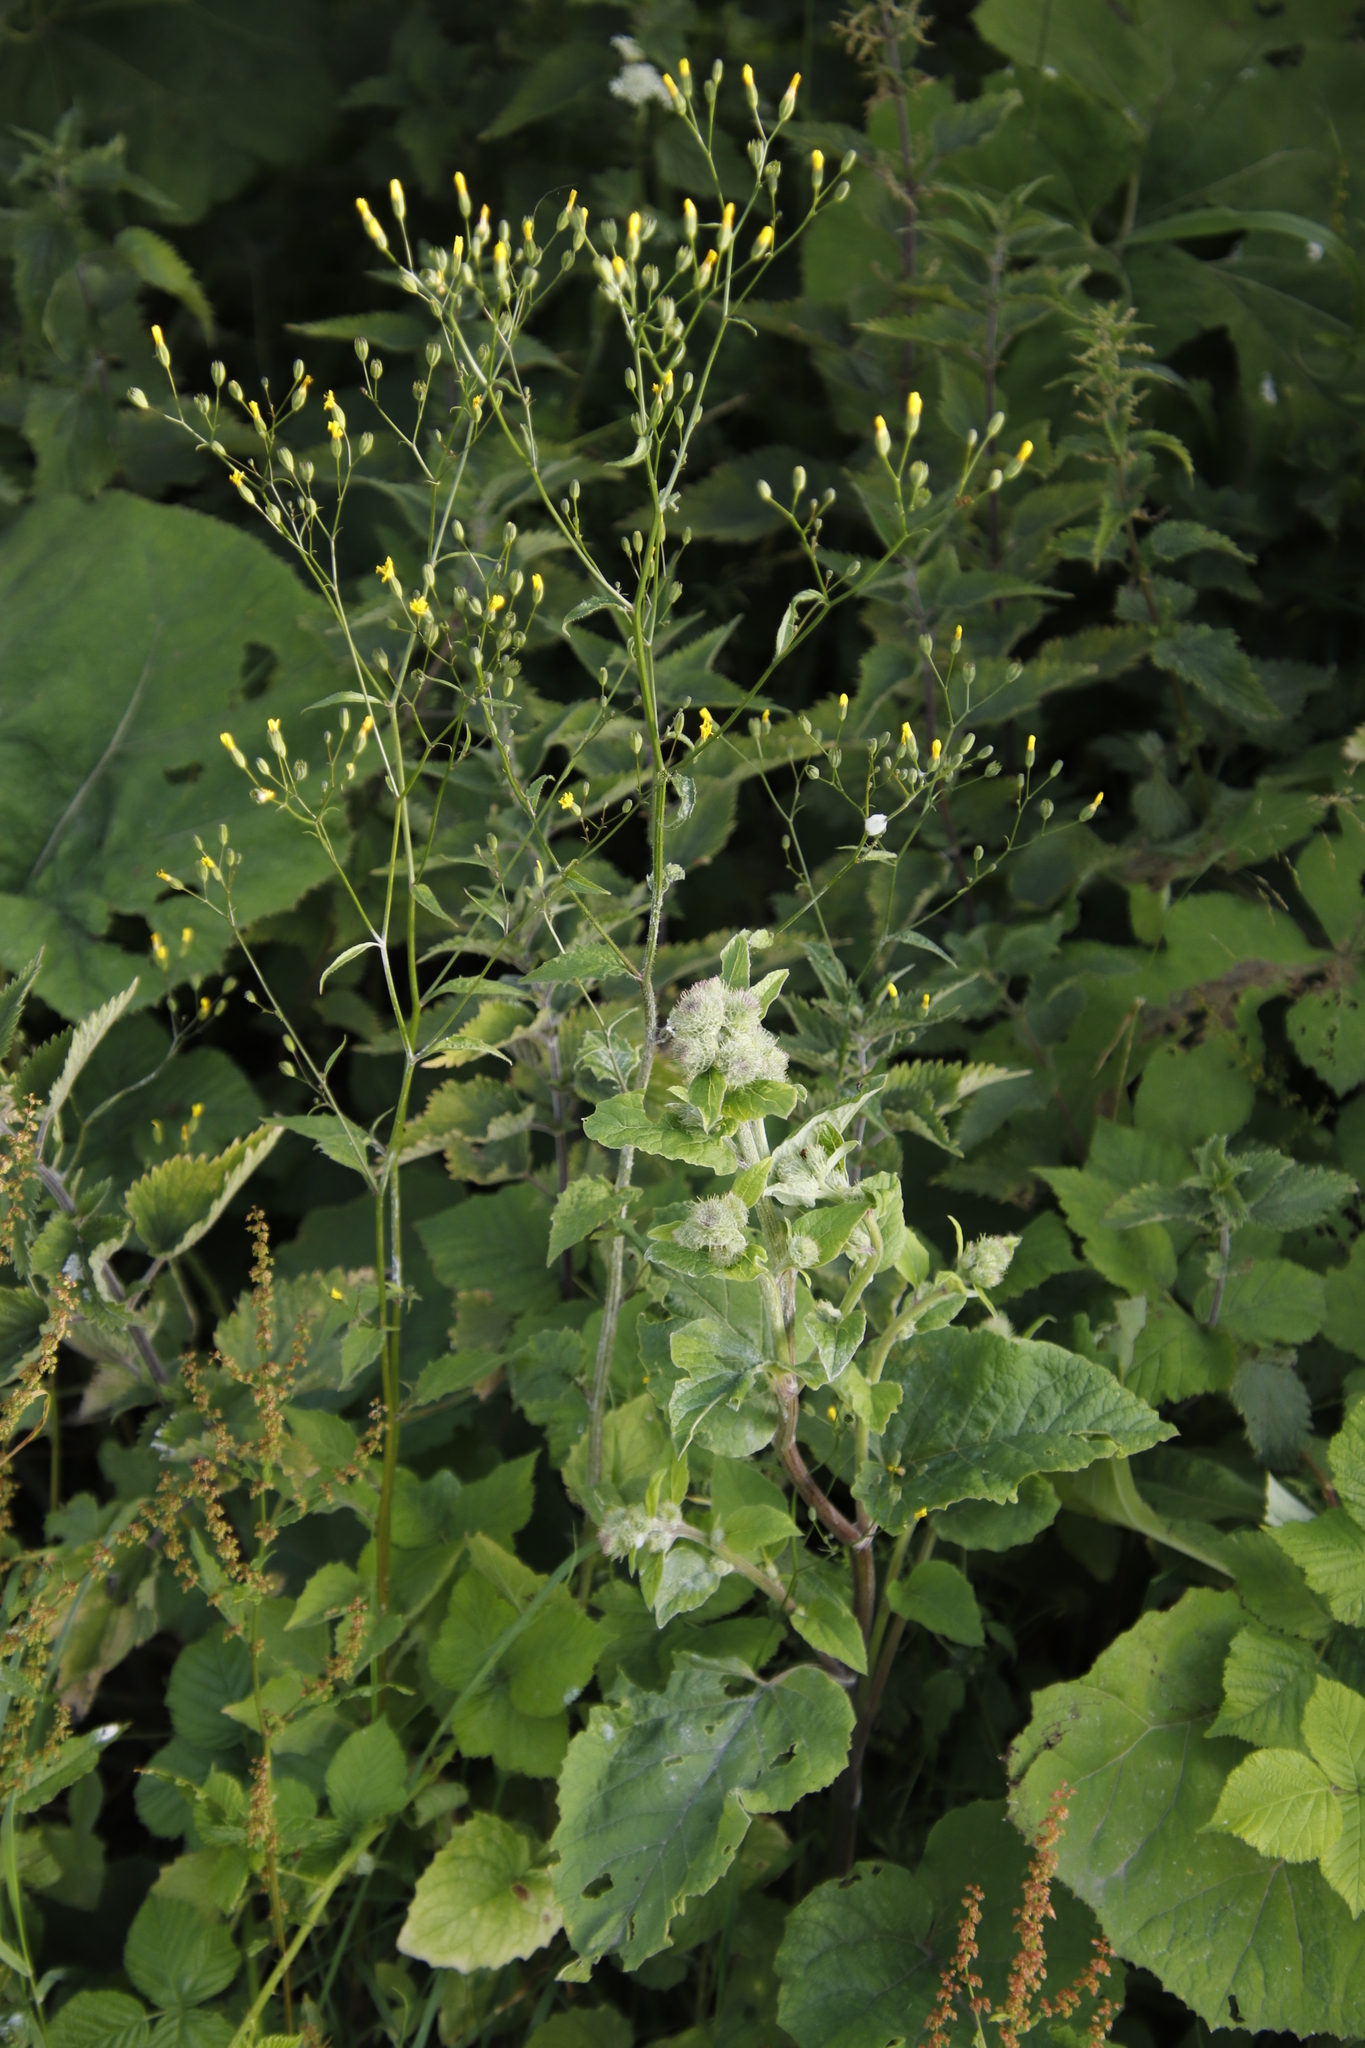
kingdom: Plantae
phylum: Tracheophyta
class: Magnoliopsida
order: Asterales
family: Asteraceae
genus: Lapsana
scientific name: Lapsana communis
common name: Nipplewort
